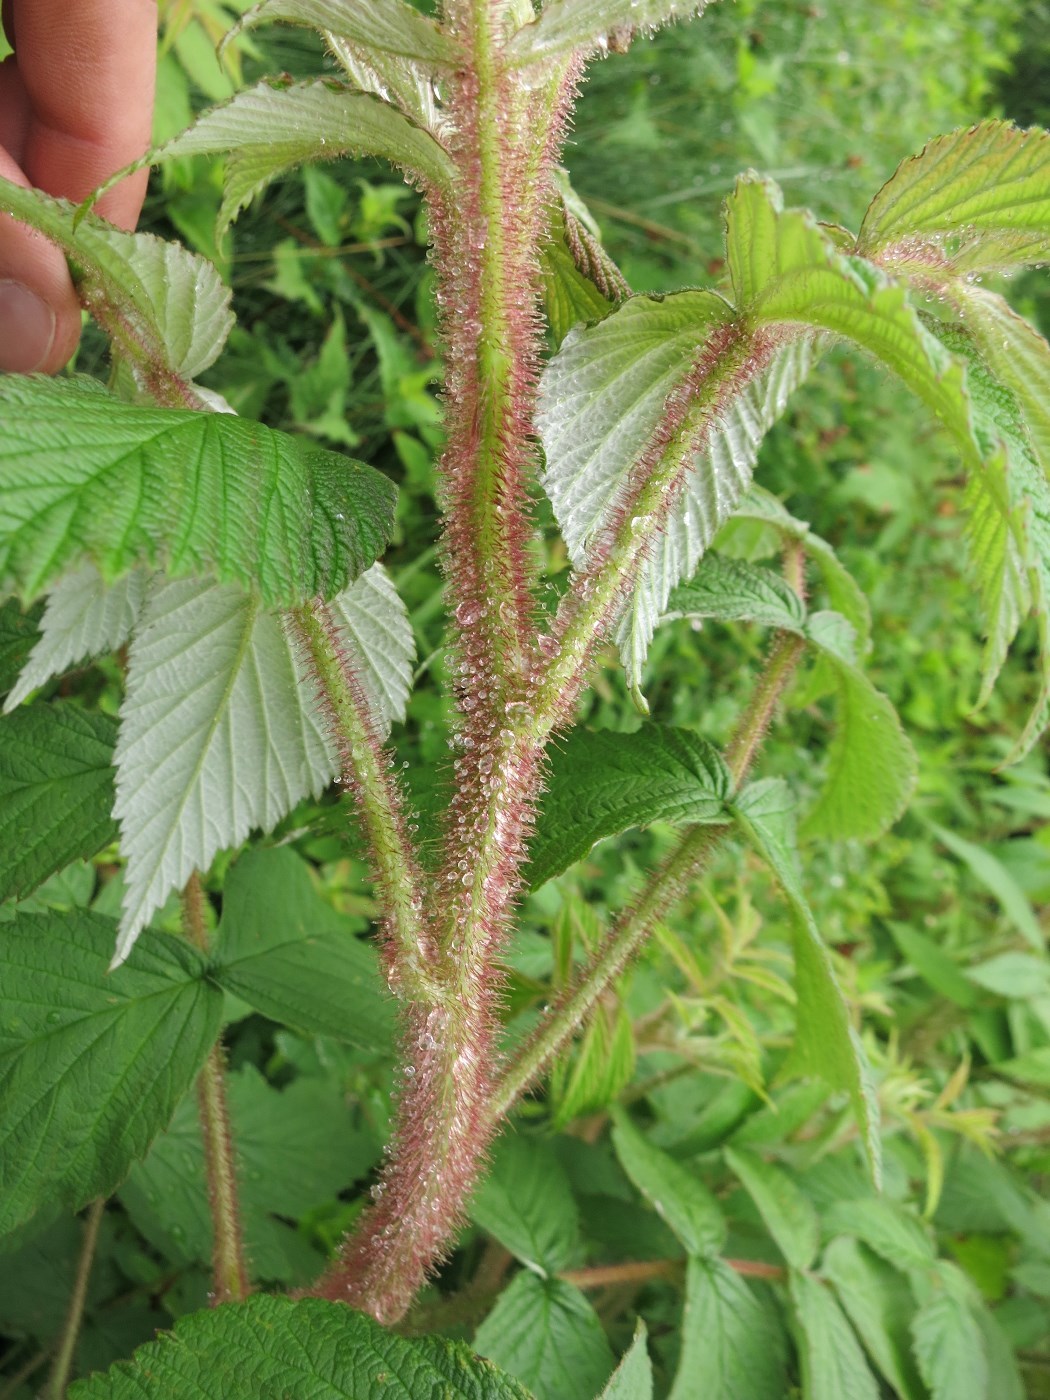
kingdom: Plantae
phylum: Tracheophyta
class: Magnoliopsida
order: Rosales
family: Rosaceae
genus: Rubus
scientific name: Rubus idaeus
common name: Raspberry
